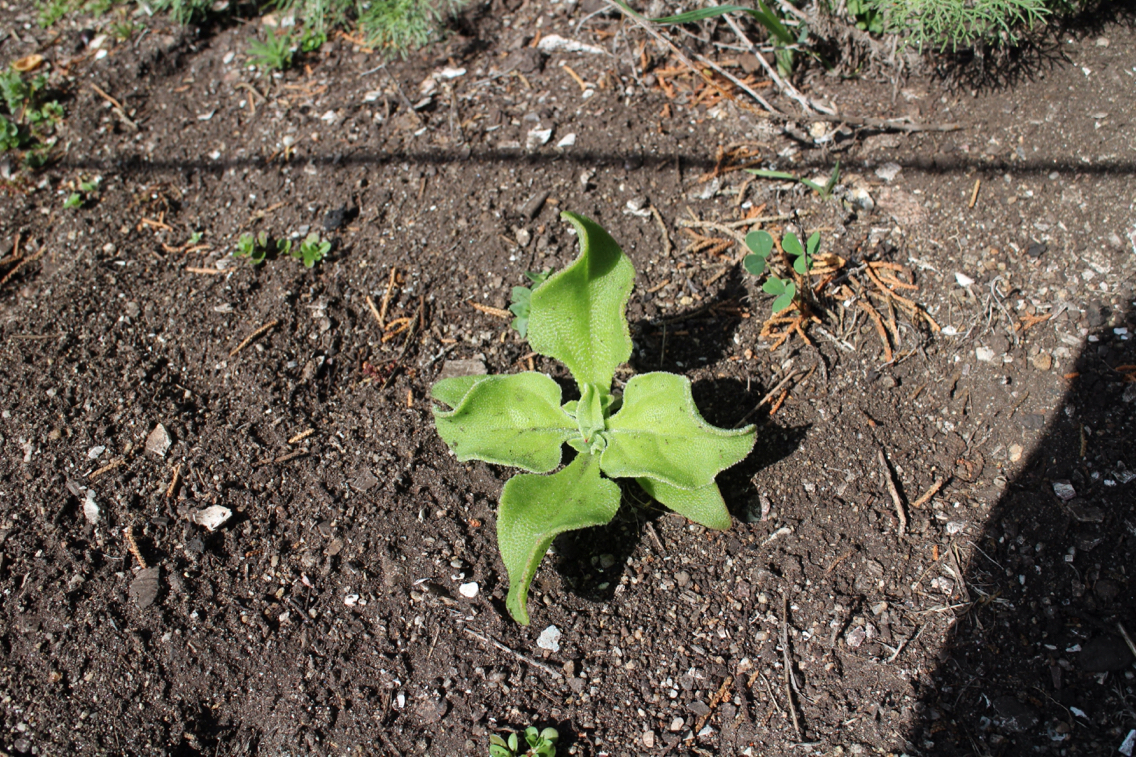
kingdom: Plantae
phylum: Tracheophyta
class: Magnoliopsida
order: Caryophyllales
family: Aizoaceae
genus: Mesembryanthemum
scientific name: Mesembryanthemum crystallinum
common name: Common iceplant
